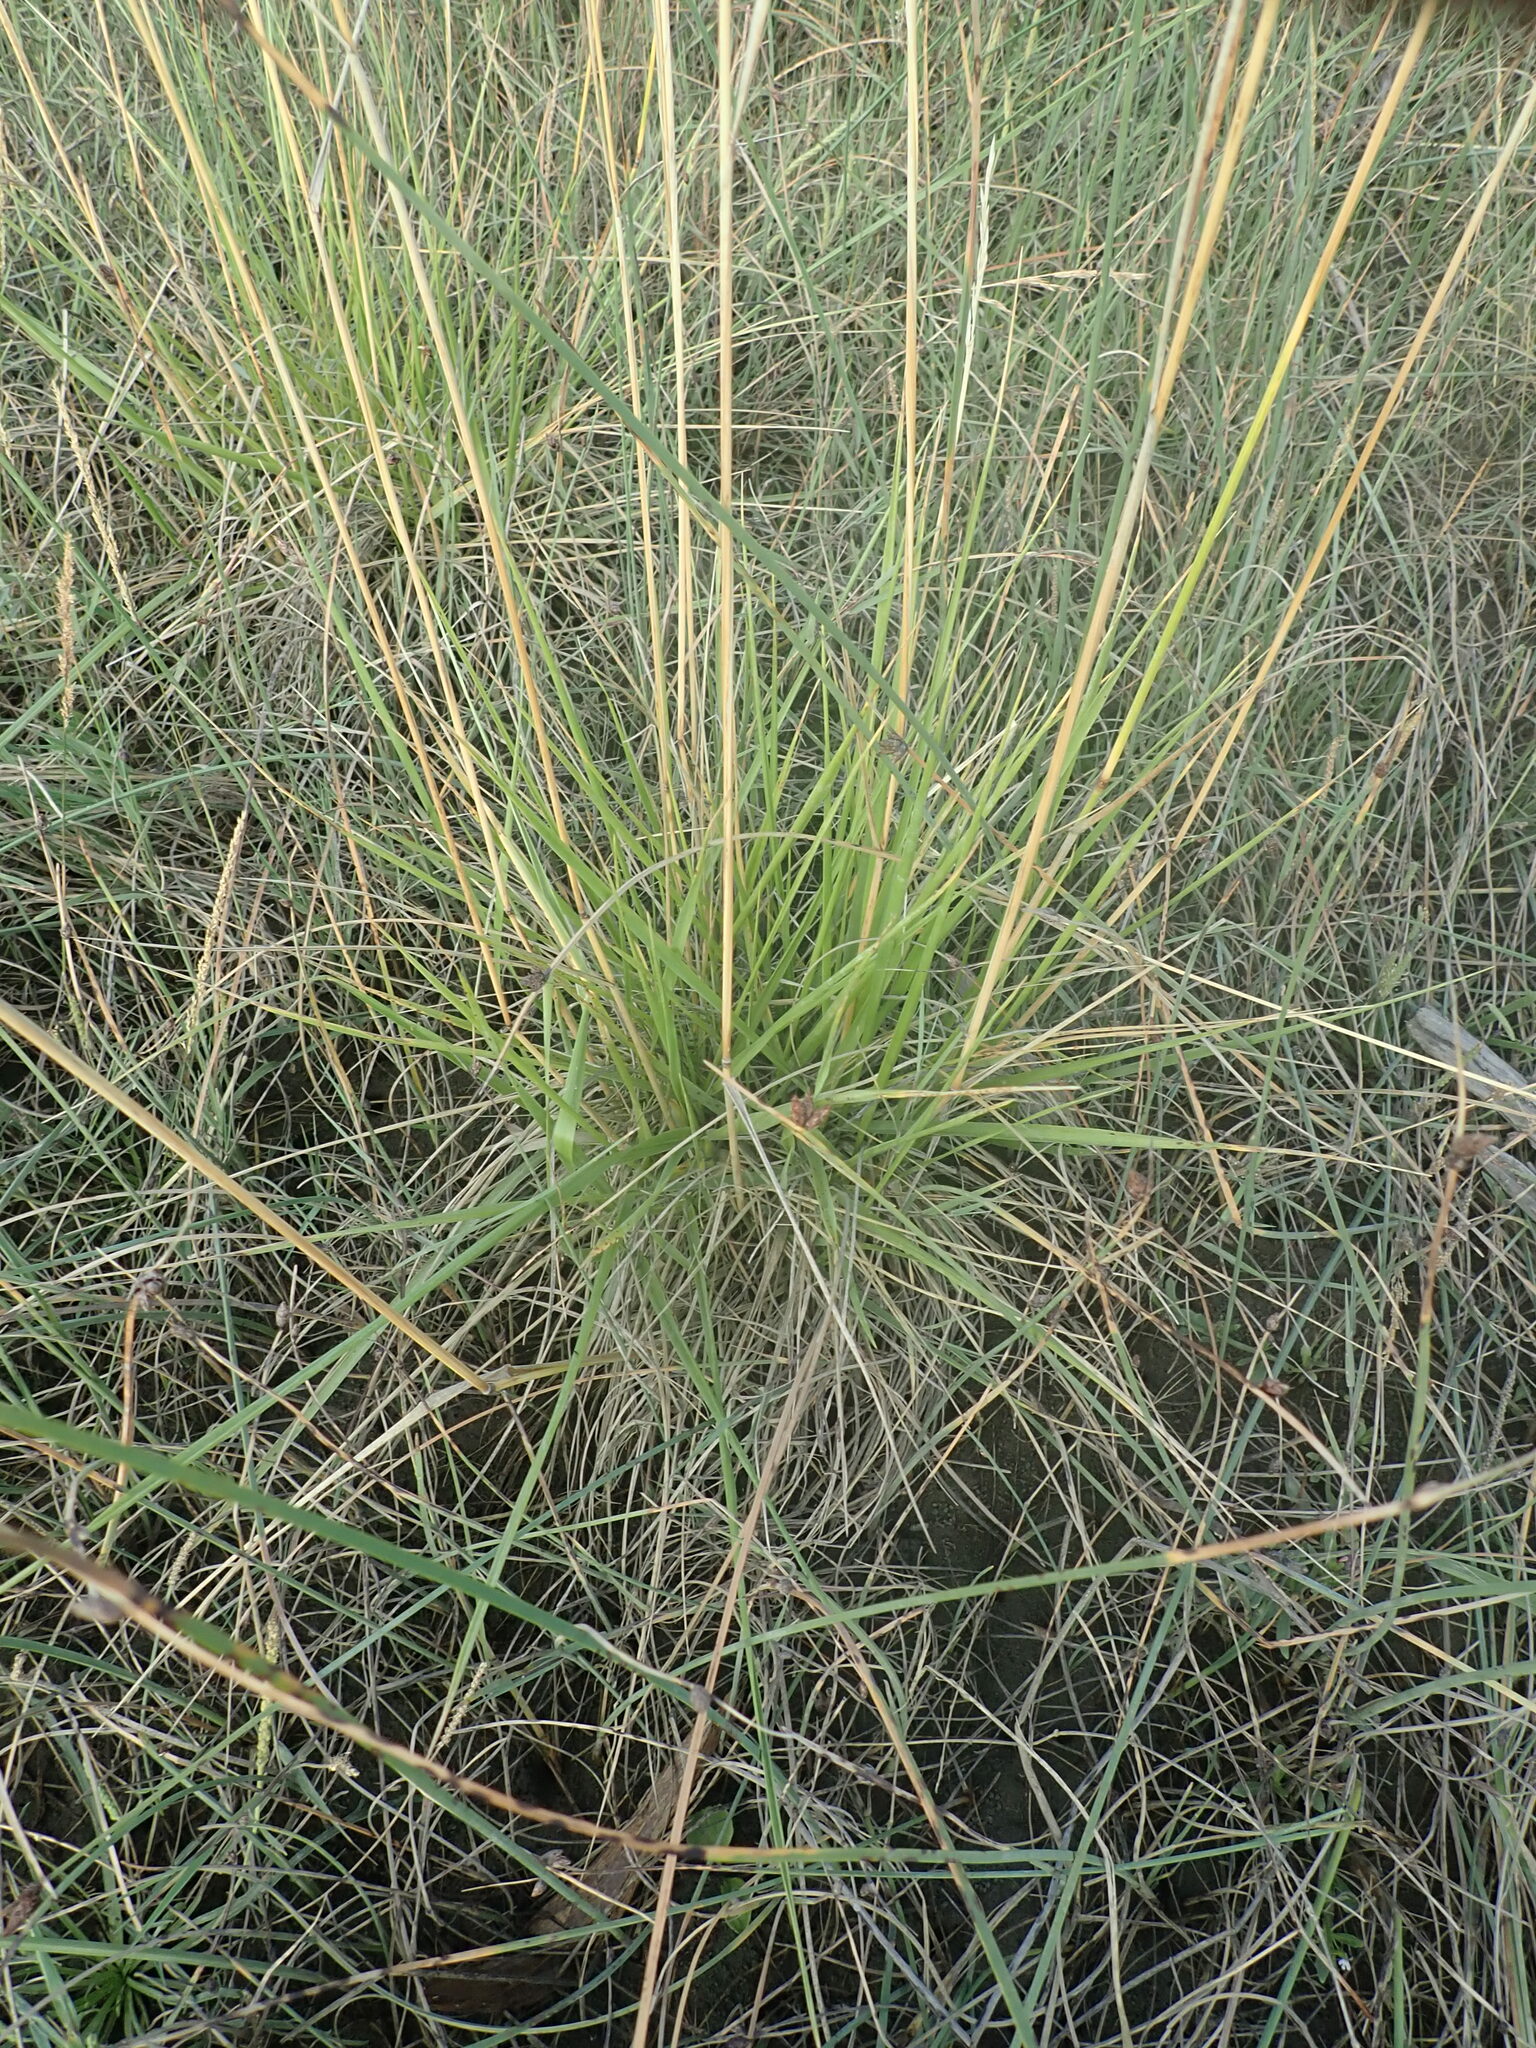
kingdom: Plantae
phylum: Tracheophyta
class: Liliopsida
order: Poales
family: Poaceae
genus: Lolium
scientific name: Lolium arundinaceum
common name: Reed fescue
